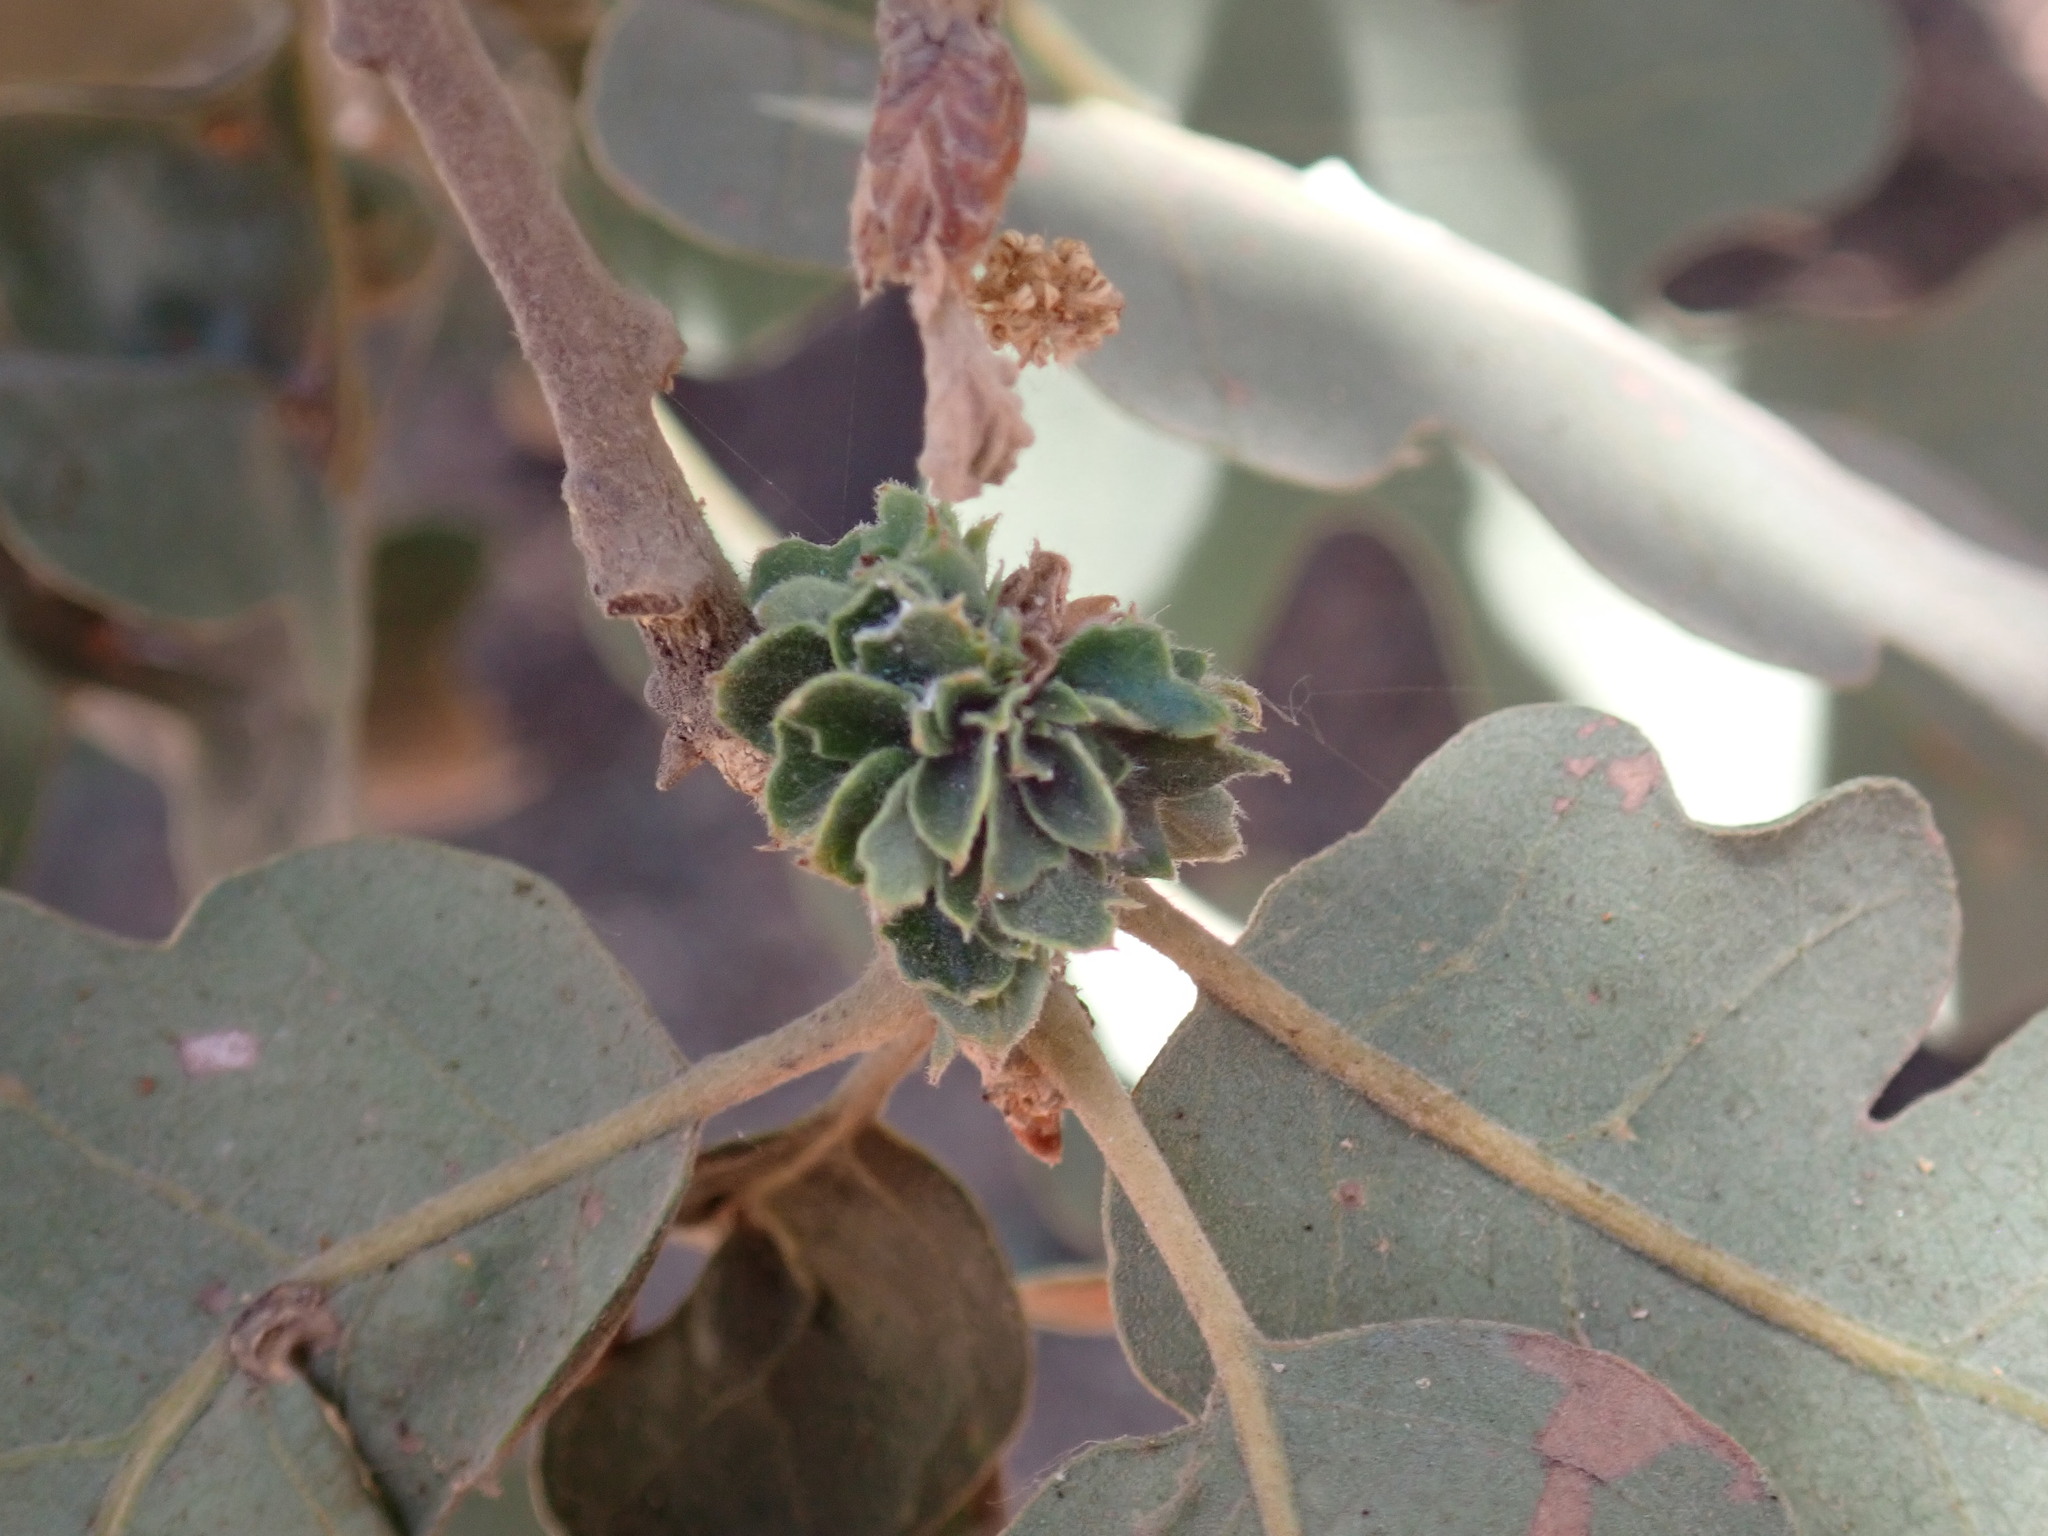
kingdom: Animalia
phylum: Arthropoda
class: Insecta
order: Hymenoptera
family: Cynipidae
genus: Andricus
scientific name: Andricus
